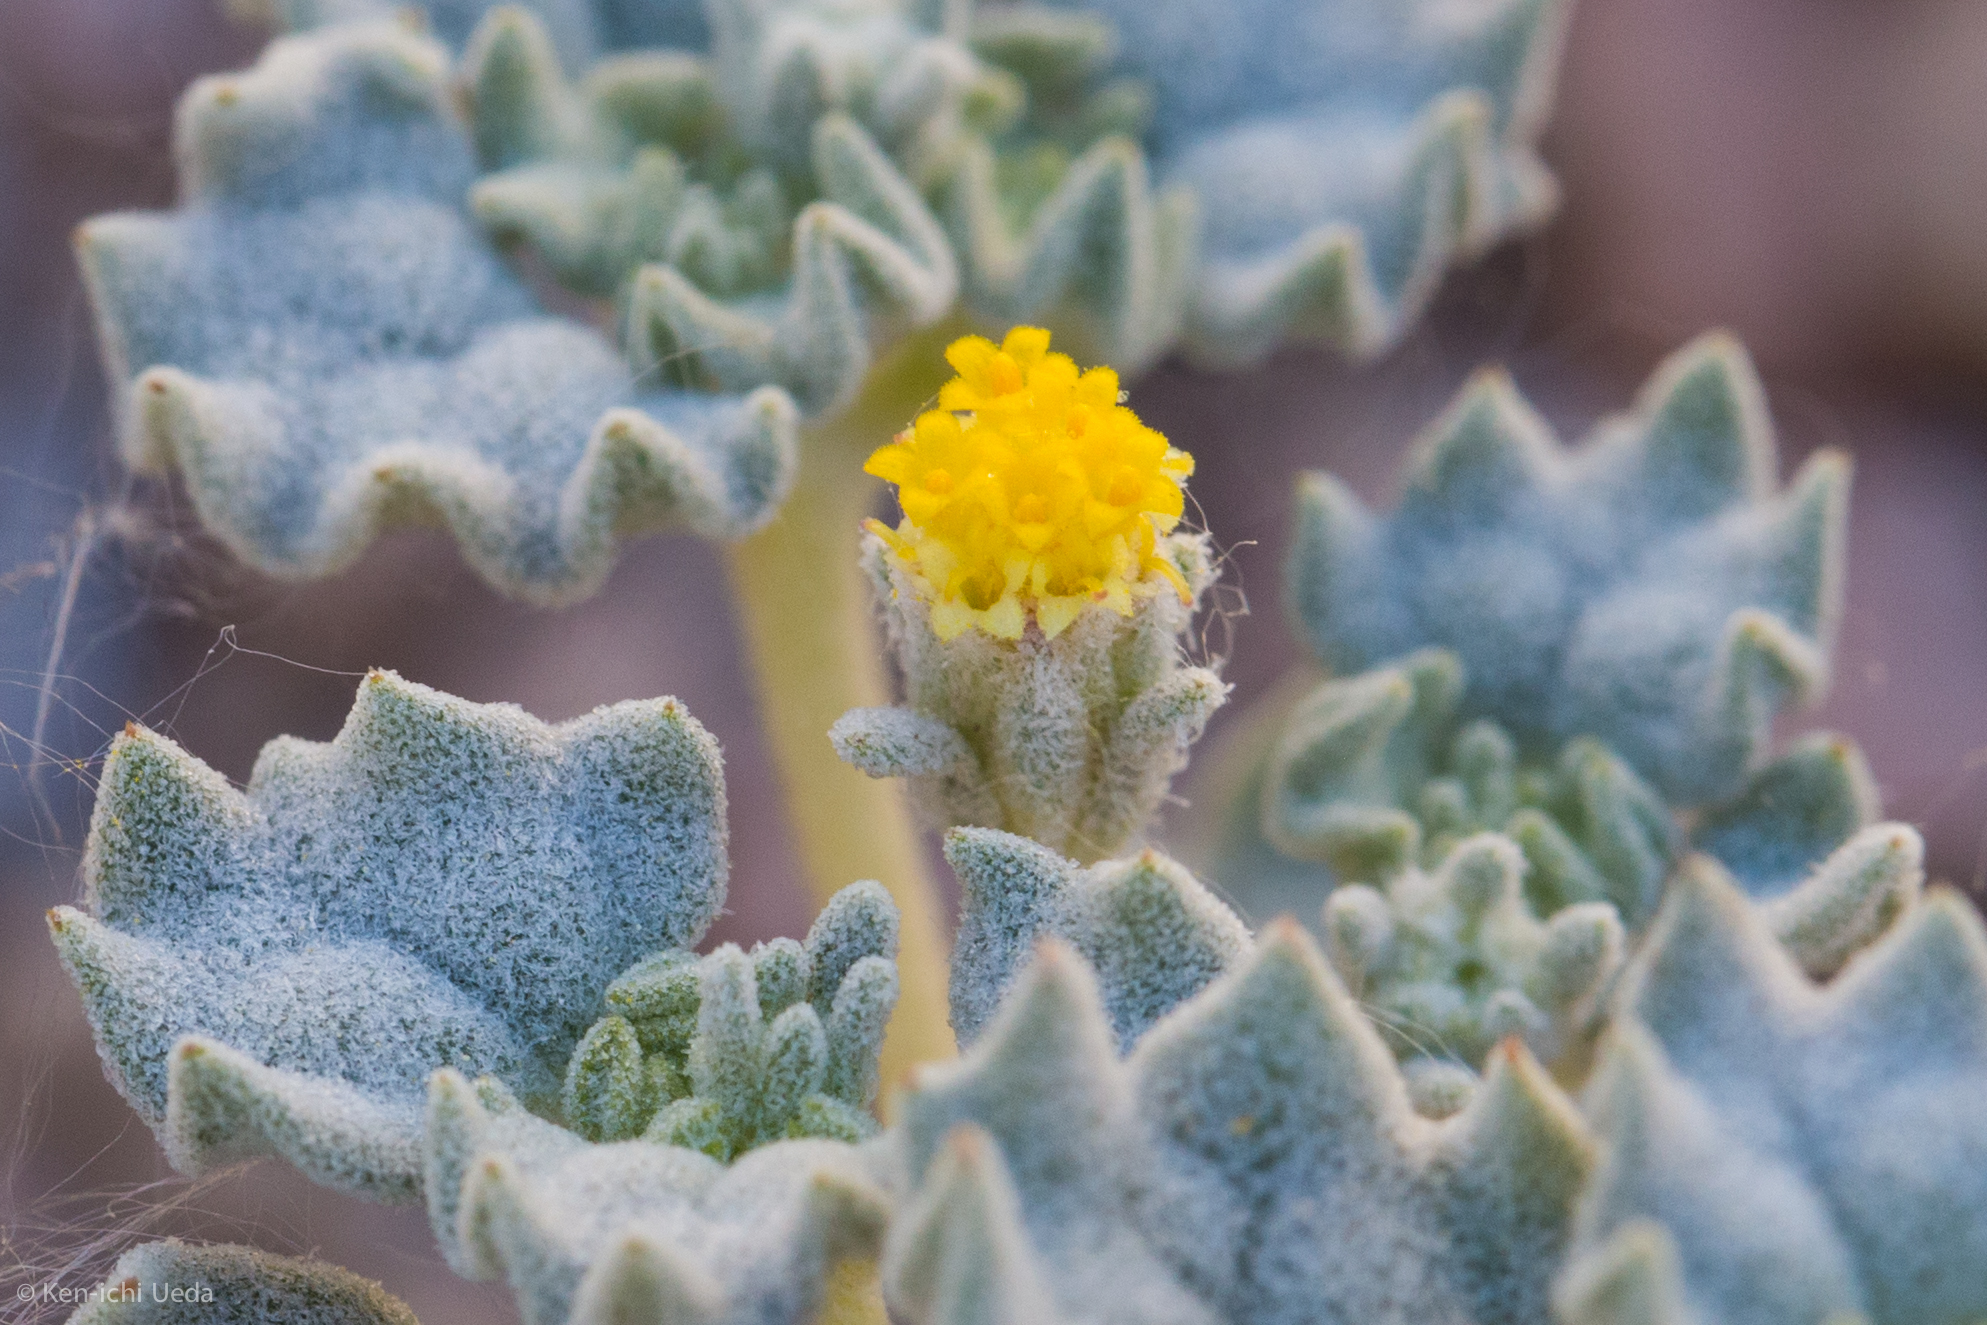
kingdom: Plantae
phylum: Tracheophyta
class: Magnoliopsida
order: Asterales
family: Asteraceae
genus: Psathyrotes
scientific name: Psathyrotes annua
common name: Mealy rosettes
